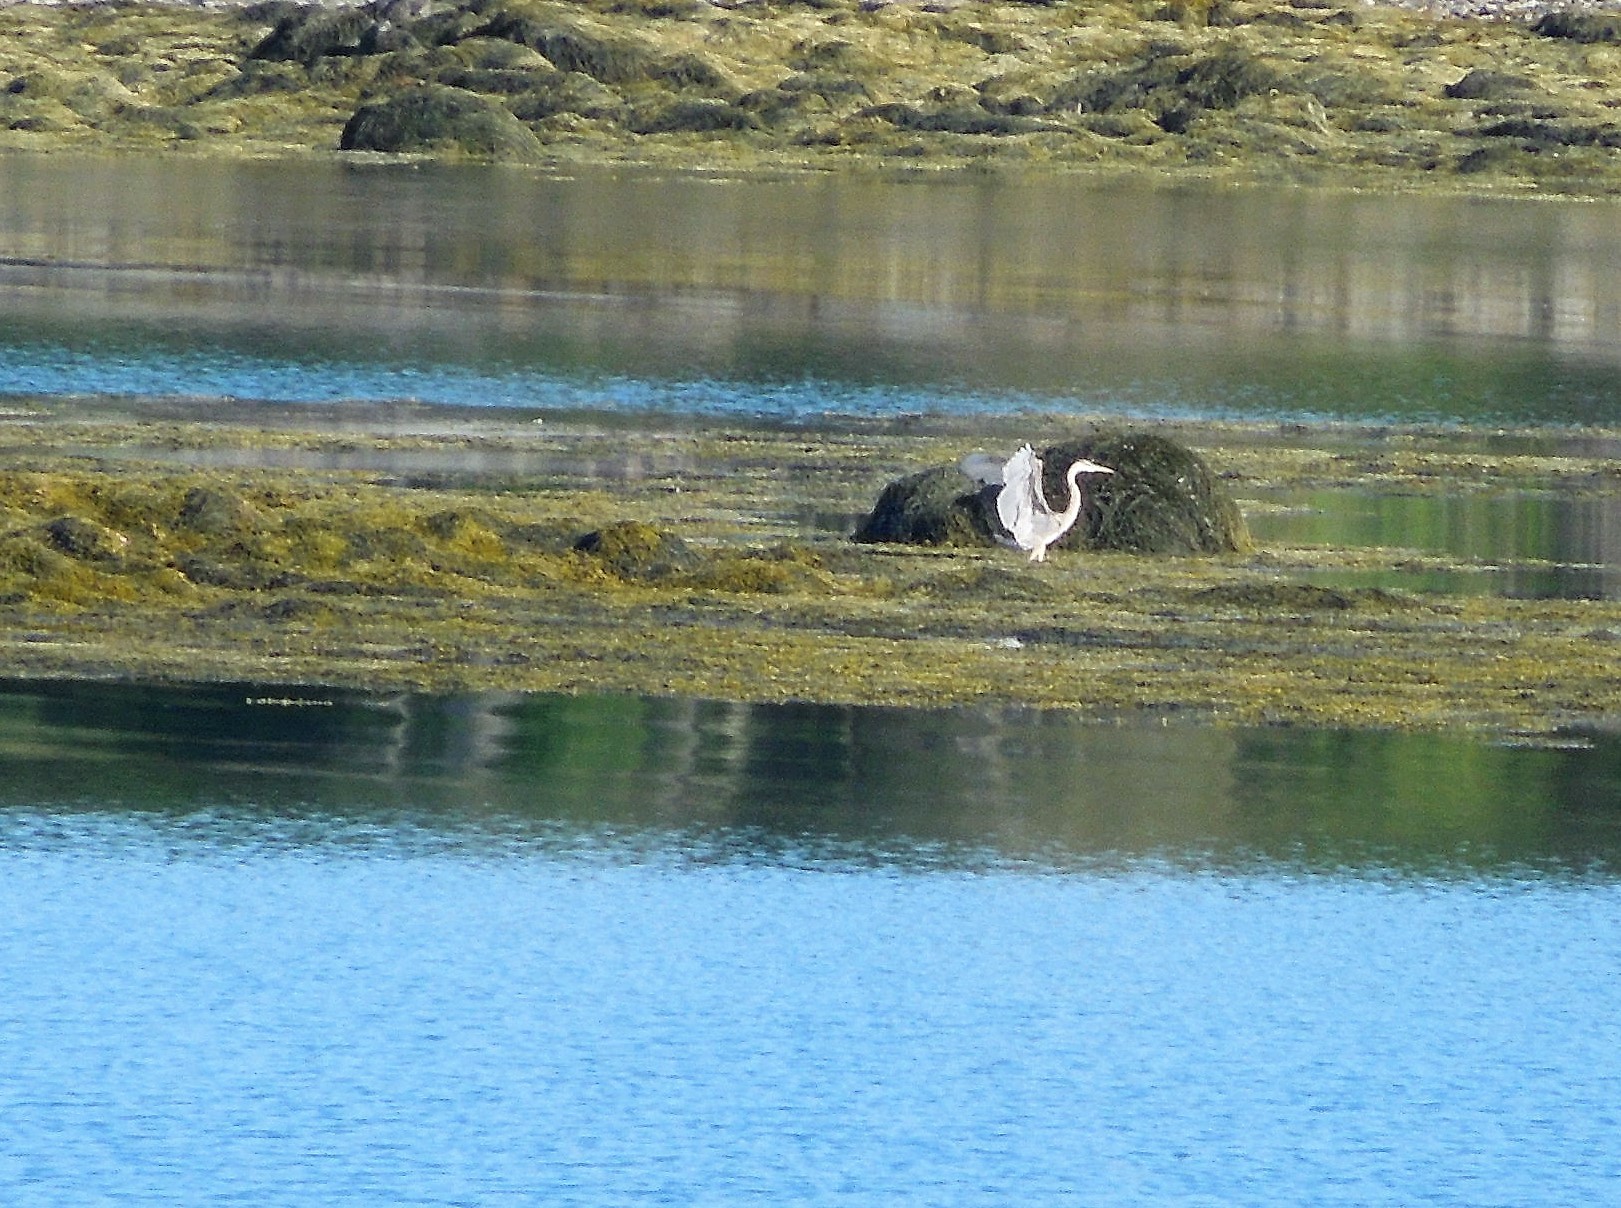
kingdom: Animalia
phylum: Chordata
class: Aves
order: Pelecaniformes
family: Ardeidae
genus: Ardea
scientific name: Ardea herodias
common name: Great blue heron
